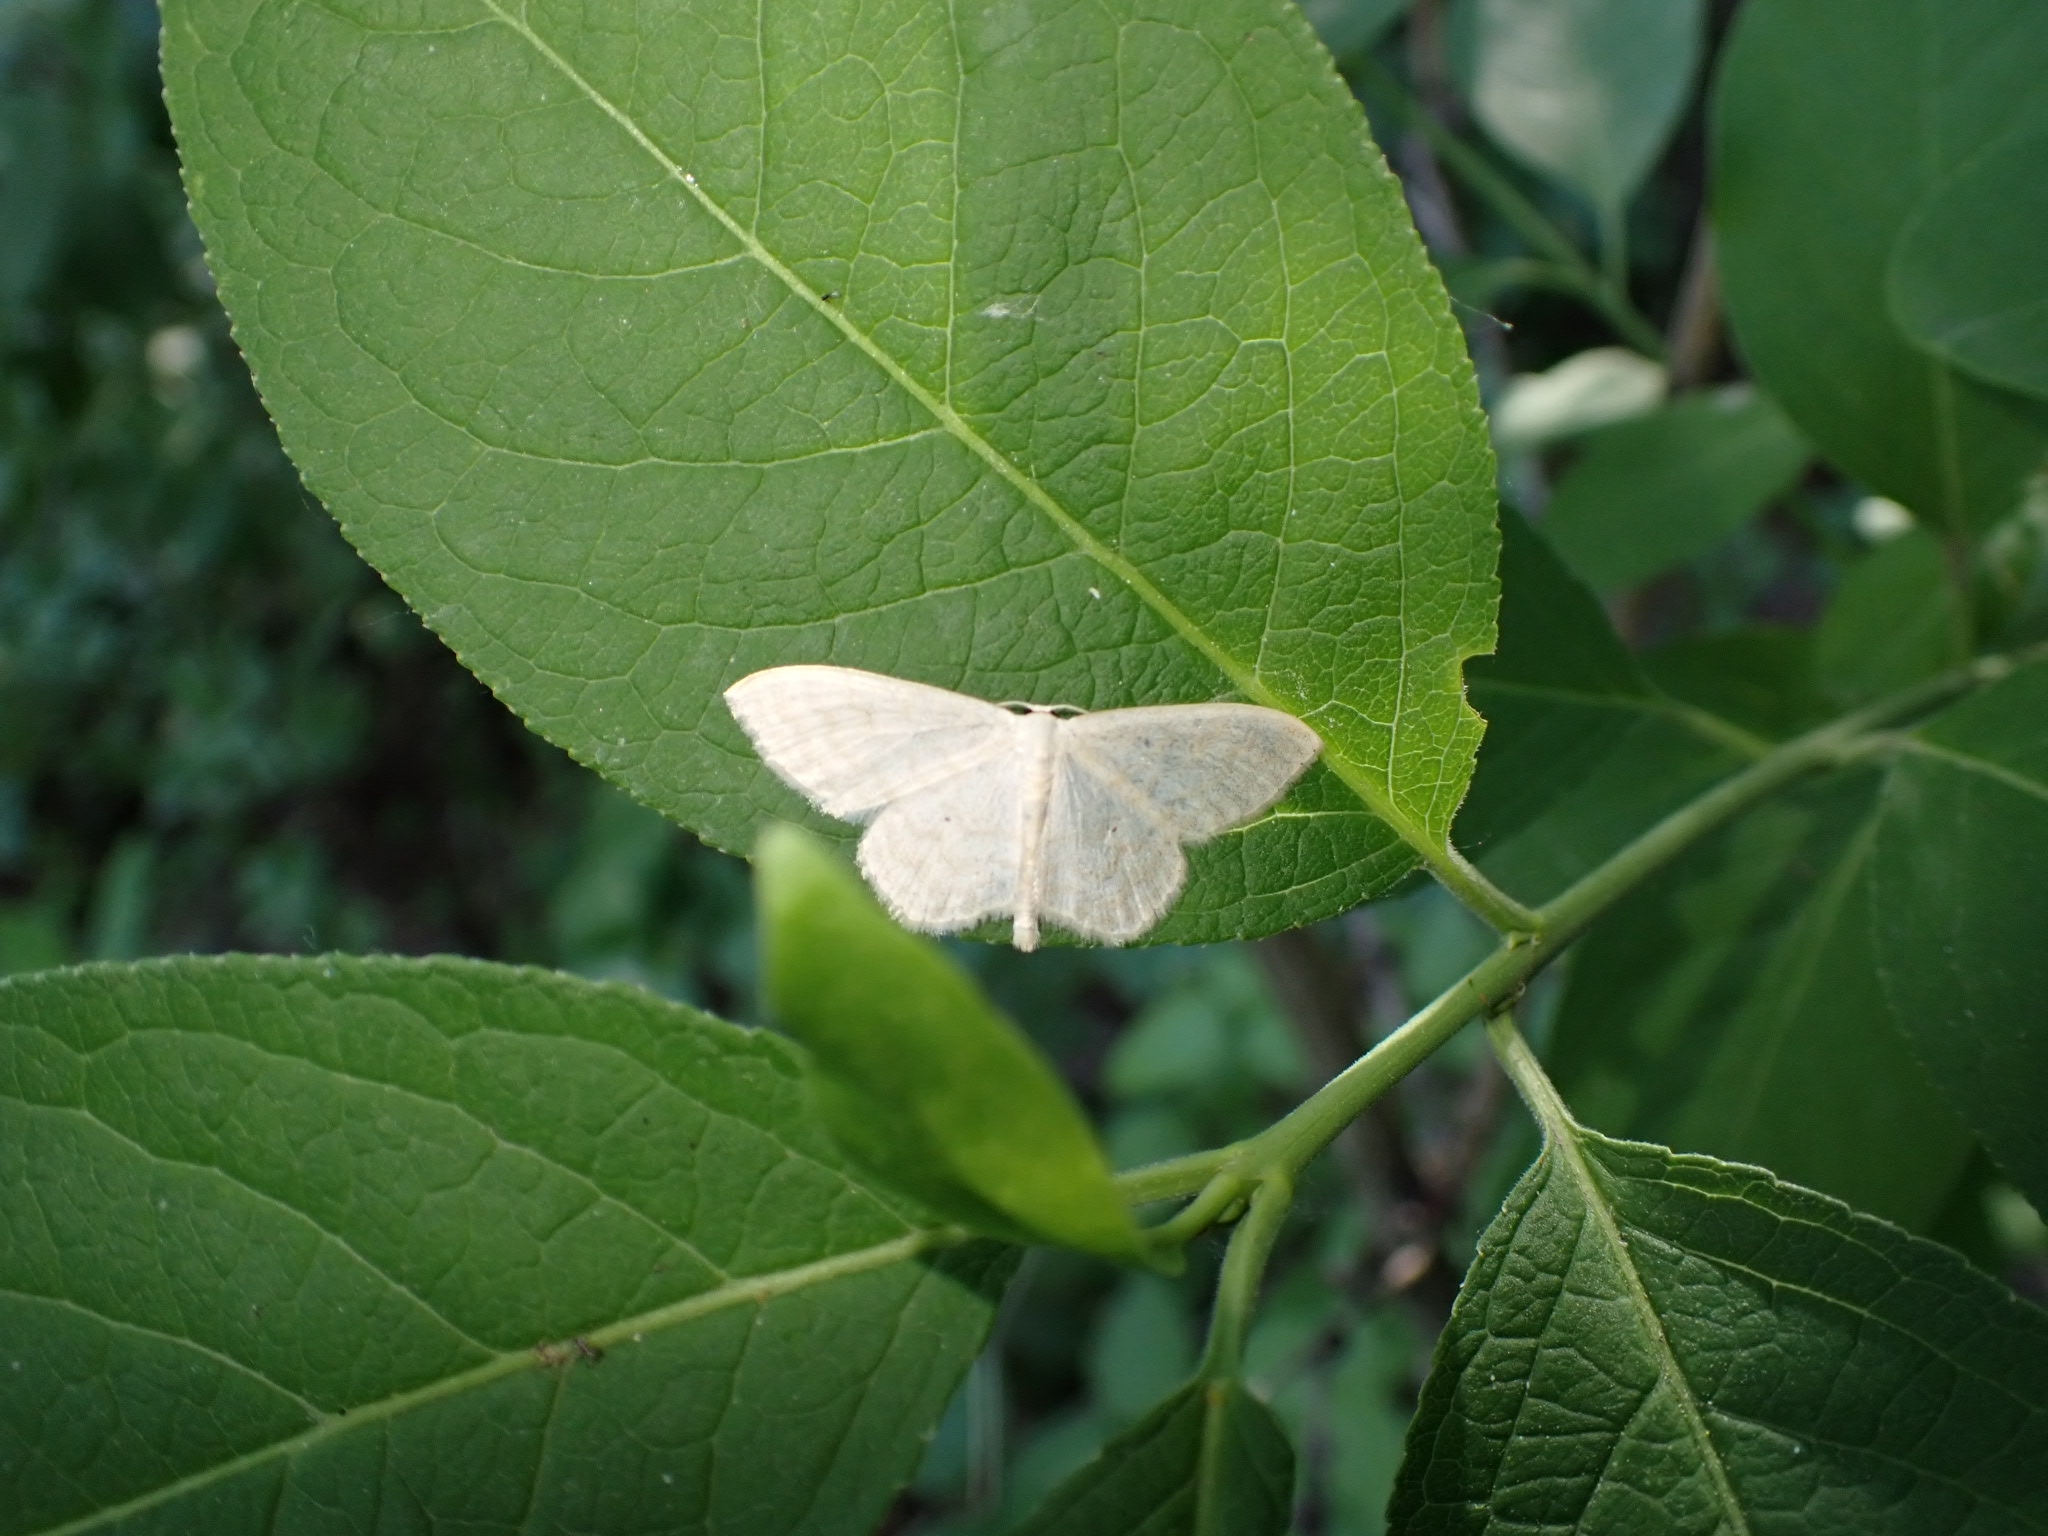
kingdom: Animalia
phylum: Arthropoda
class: Insecta
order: Lepidoptera
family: Geometridae
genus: Scopula
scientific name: Scopula floslactata
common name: Cream wave
